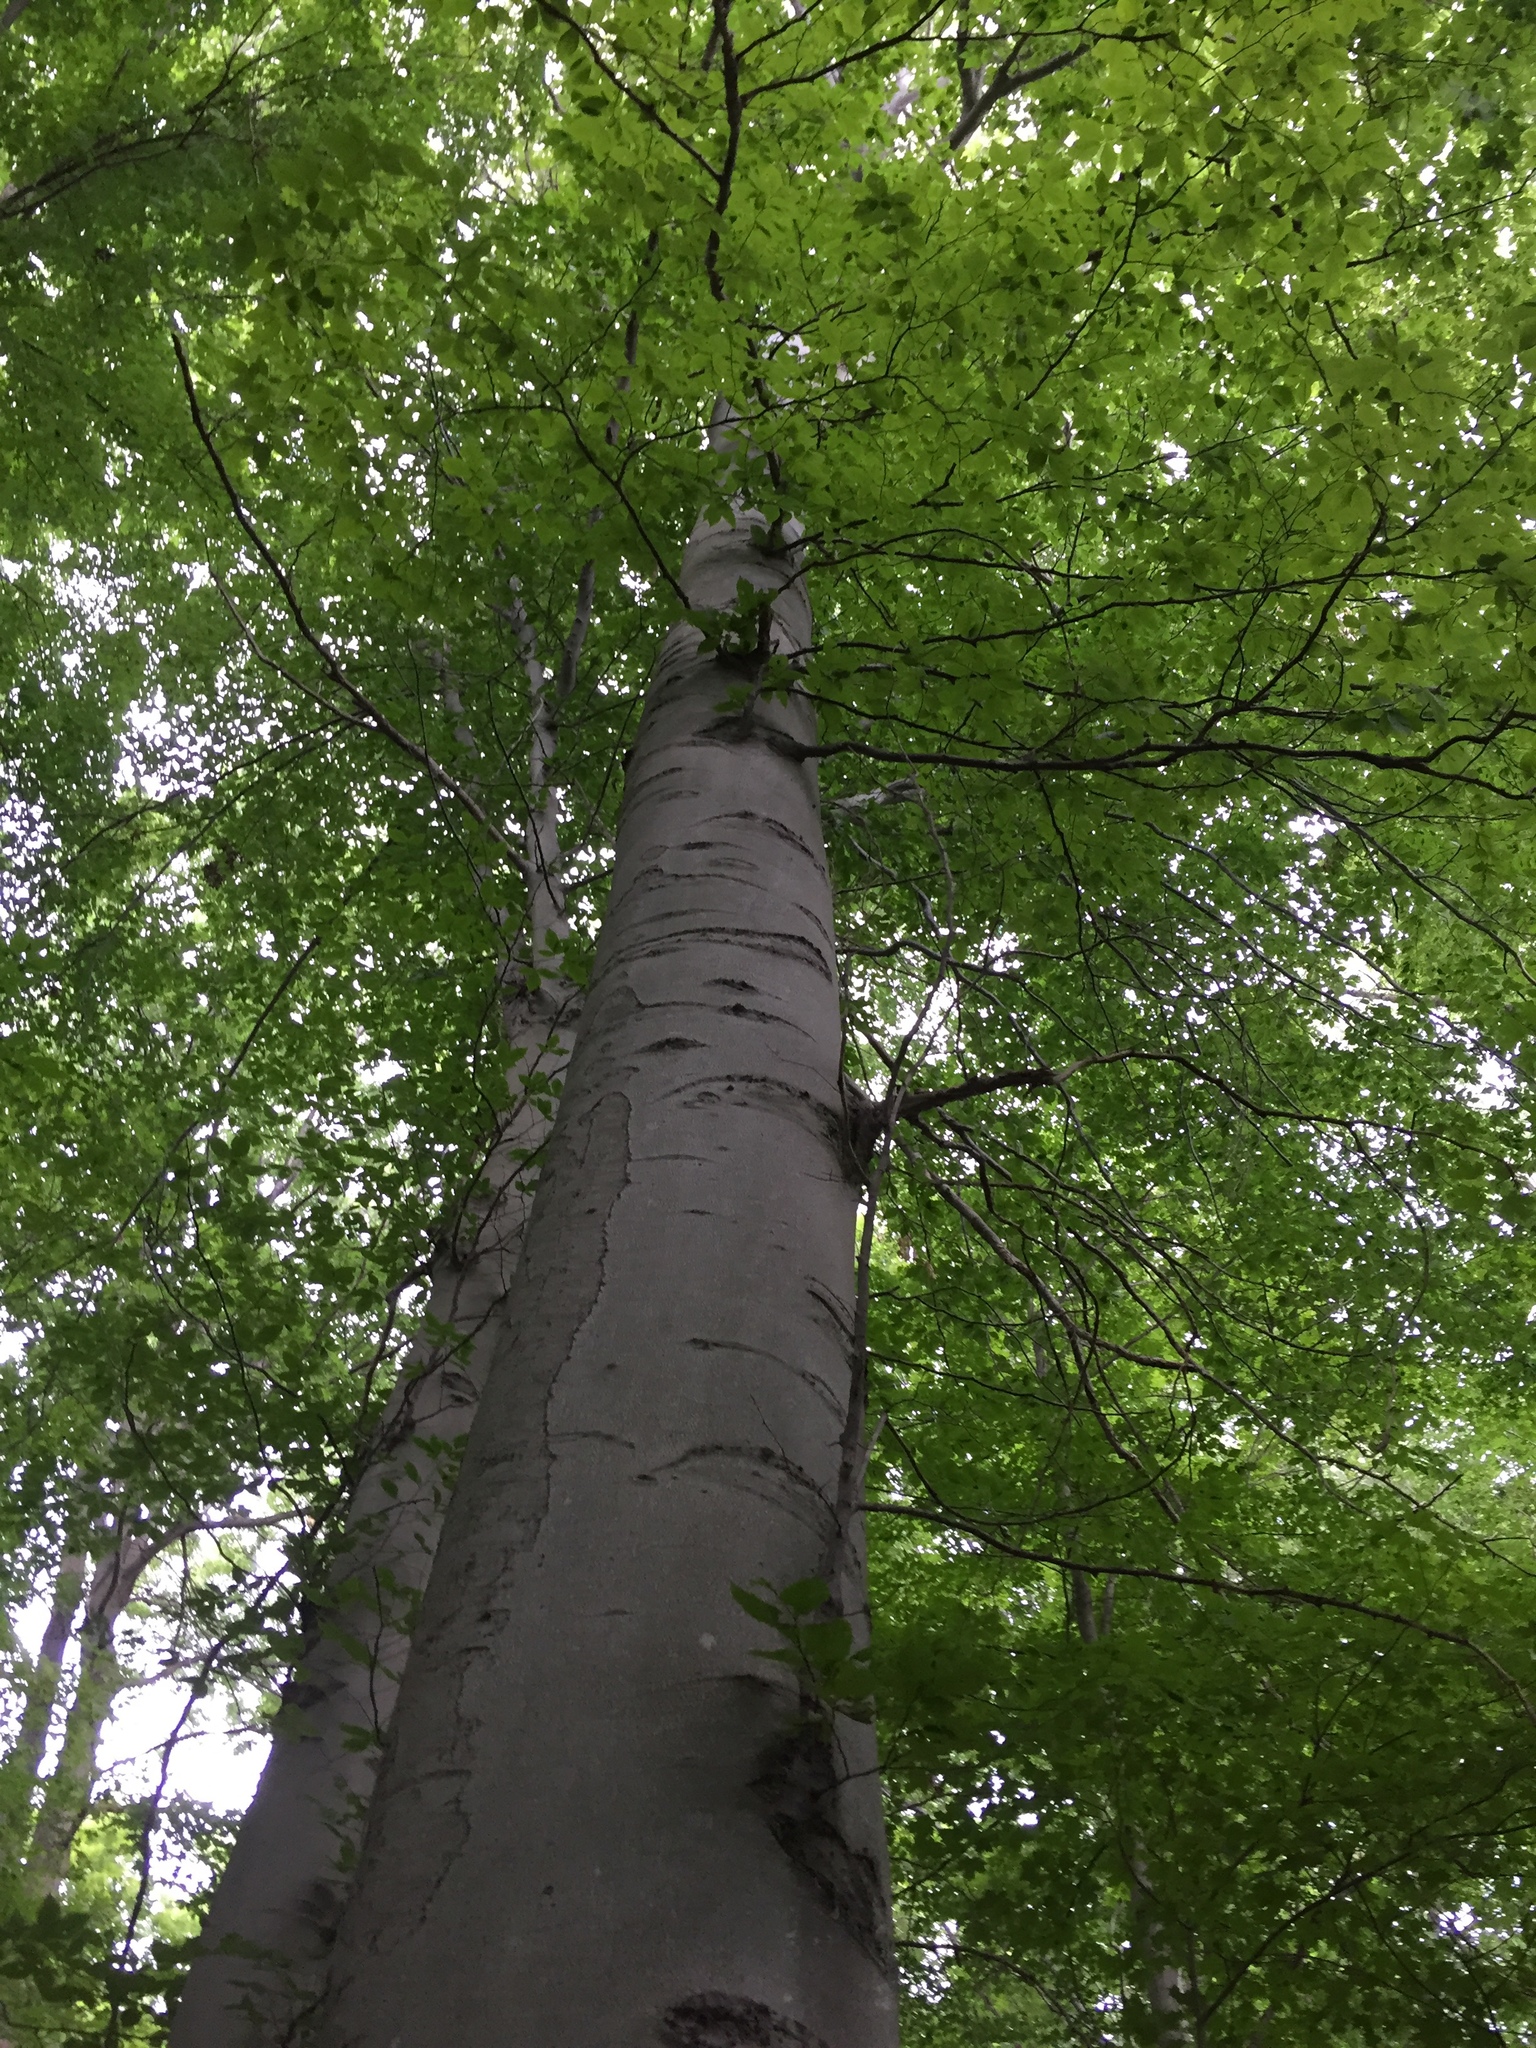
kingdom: Plantae
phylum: Tracheophyta
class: Magnoliopsida
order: Fagales
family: Fagaceae
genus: Fagus
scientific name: Fagus grandifolia
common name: American beech
